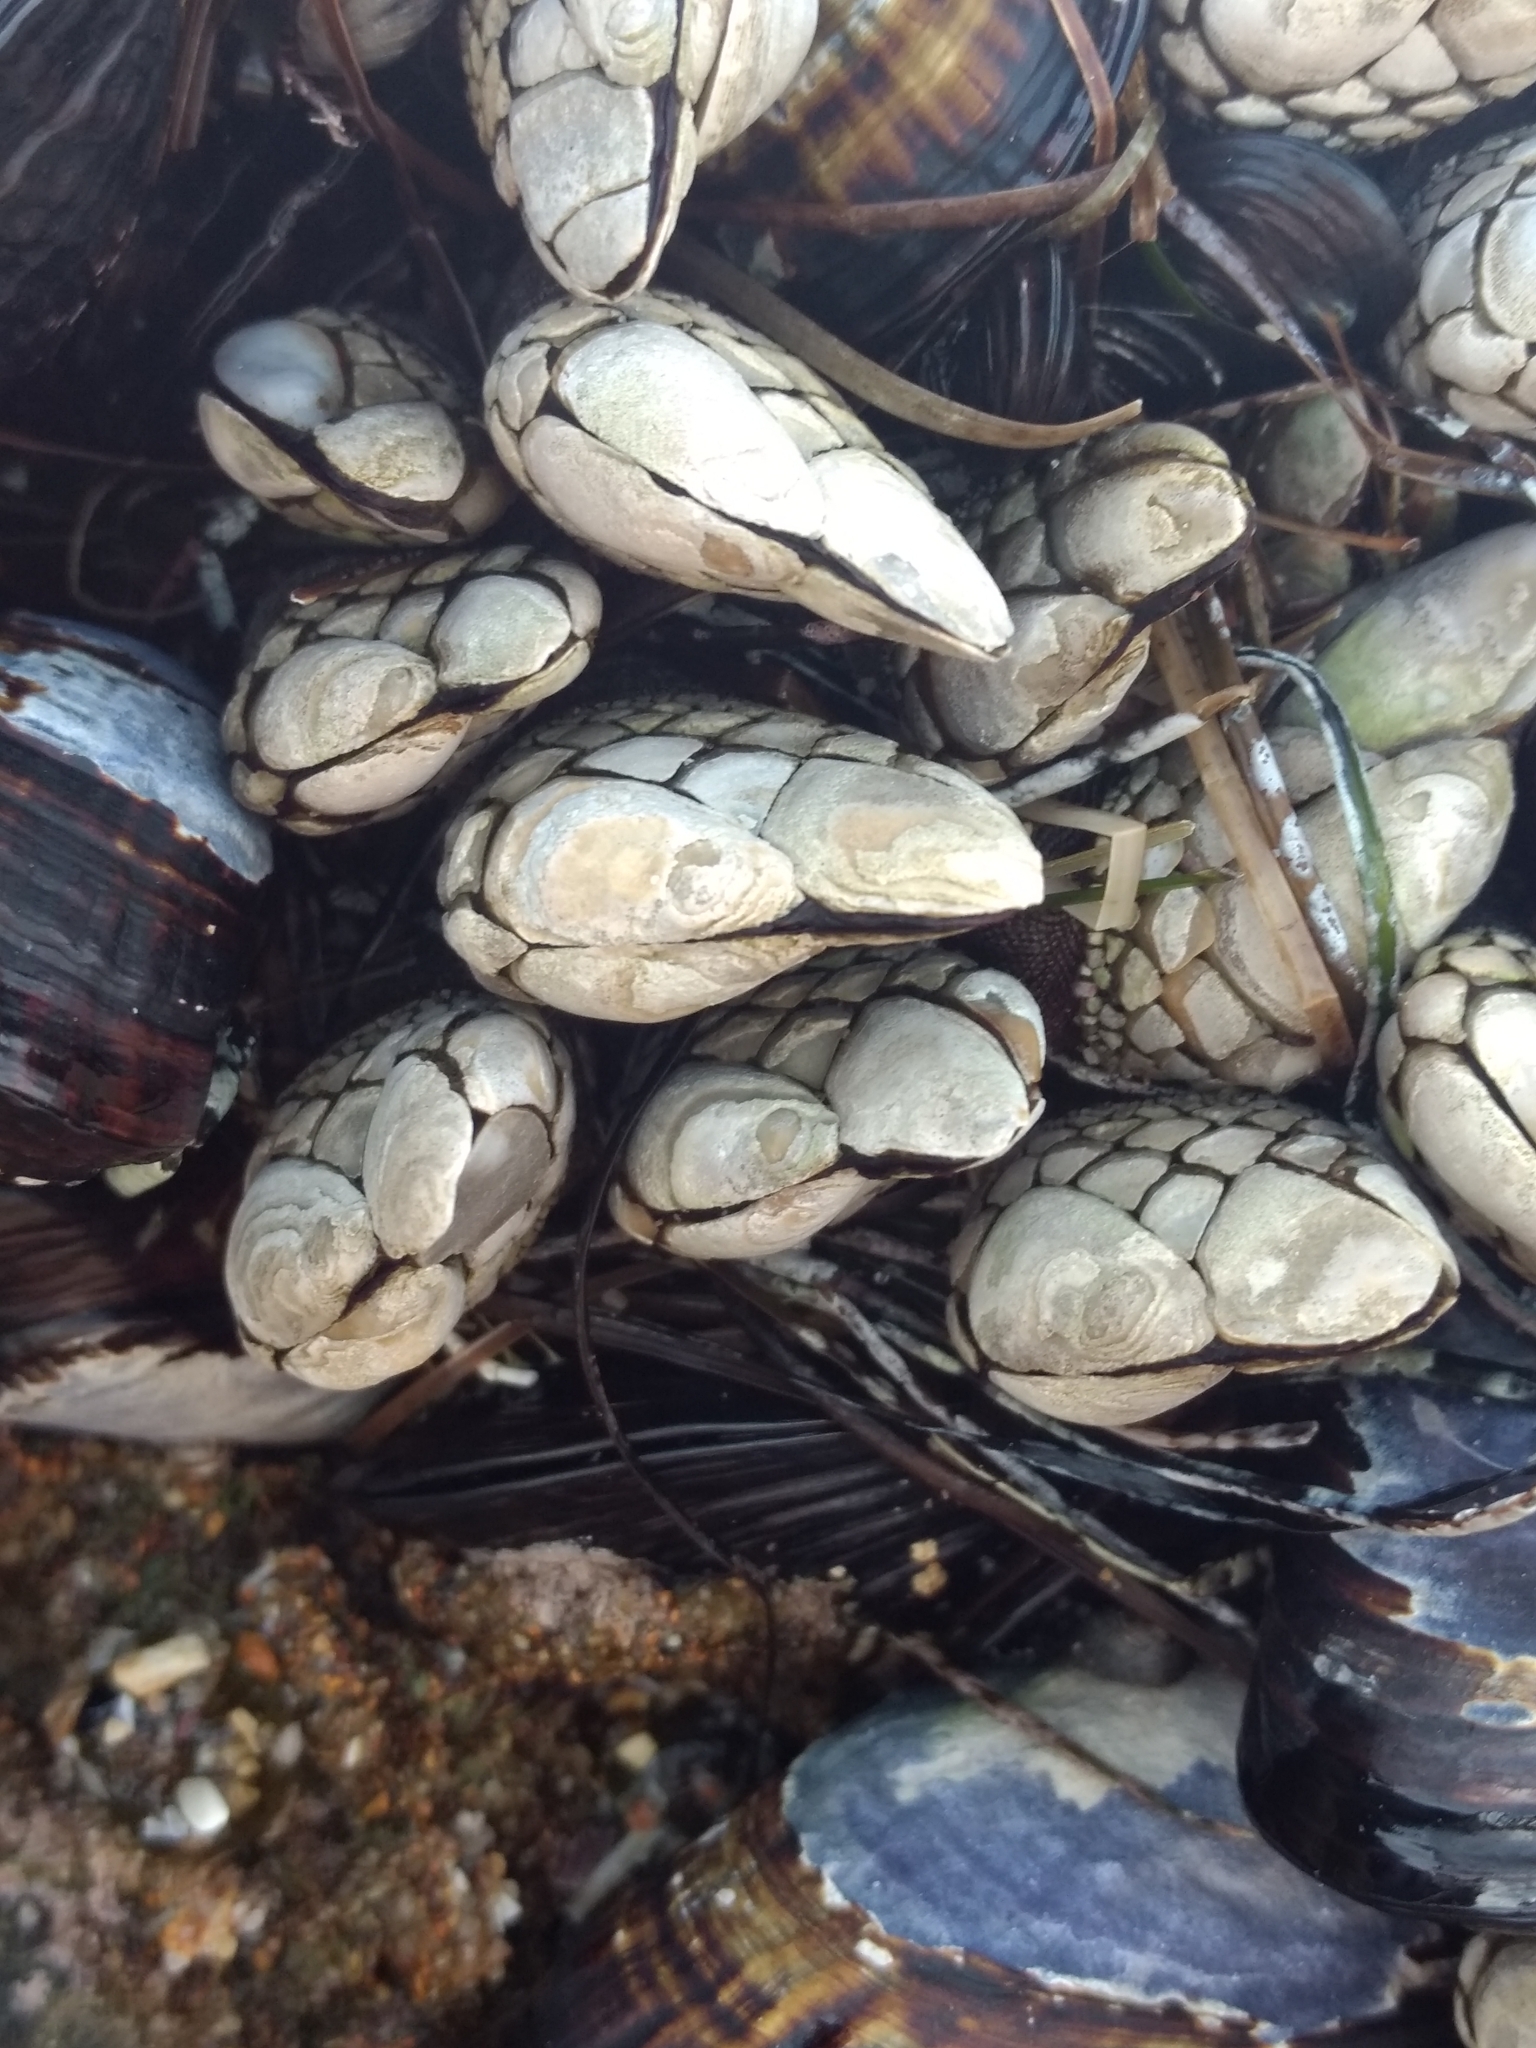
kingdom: Animalia
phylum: Arthropoda
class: Maxillopoda
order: Pedunculata
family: Pollicipedidae
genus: Pollicipes
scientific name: Pollicipes polymerus
